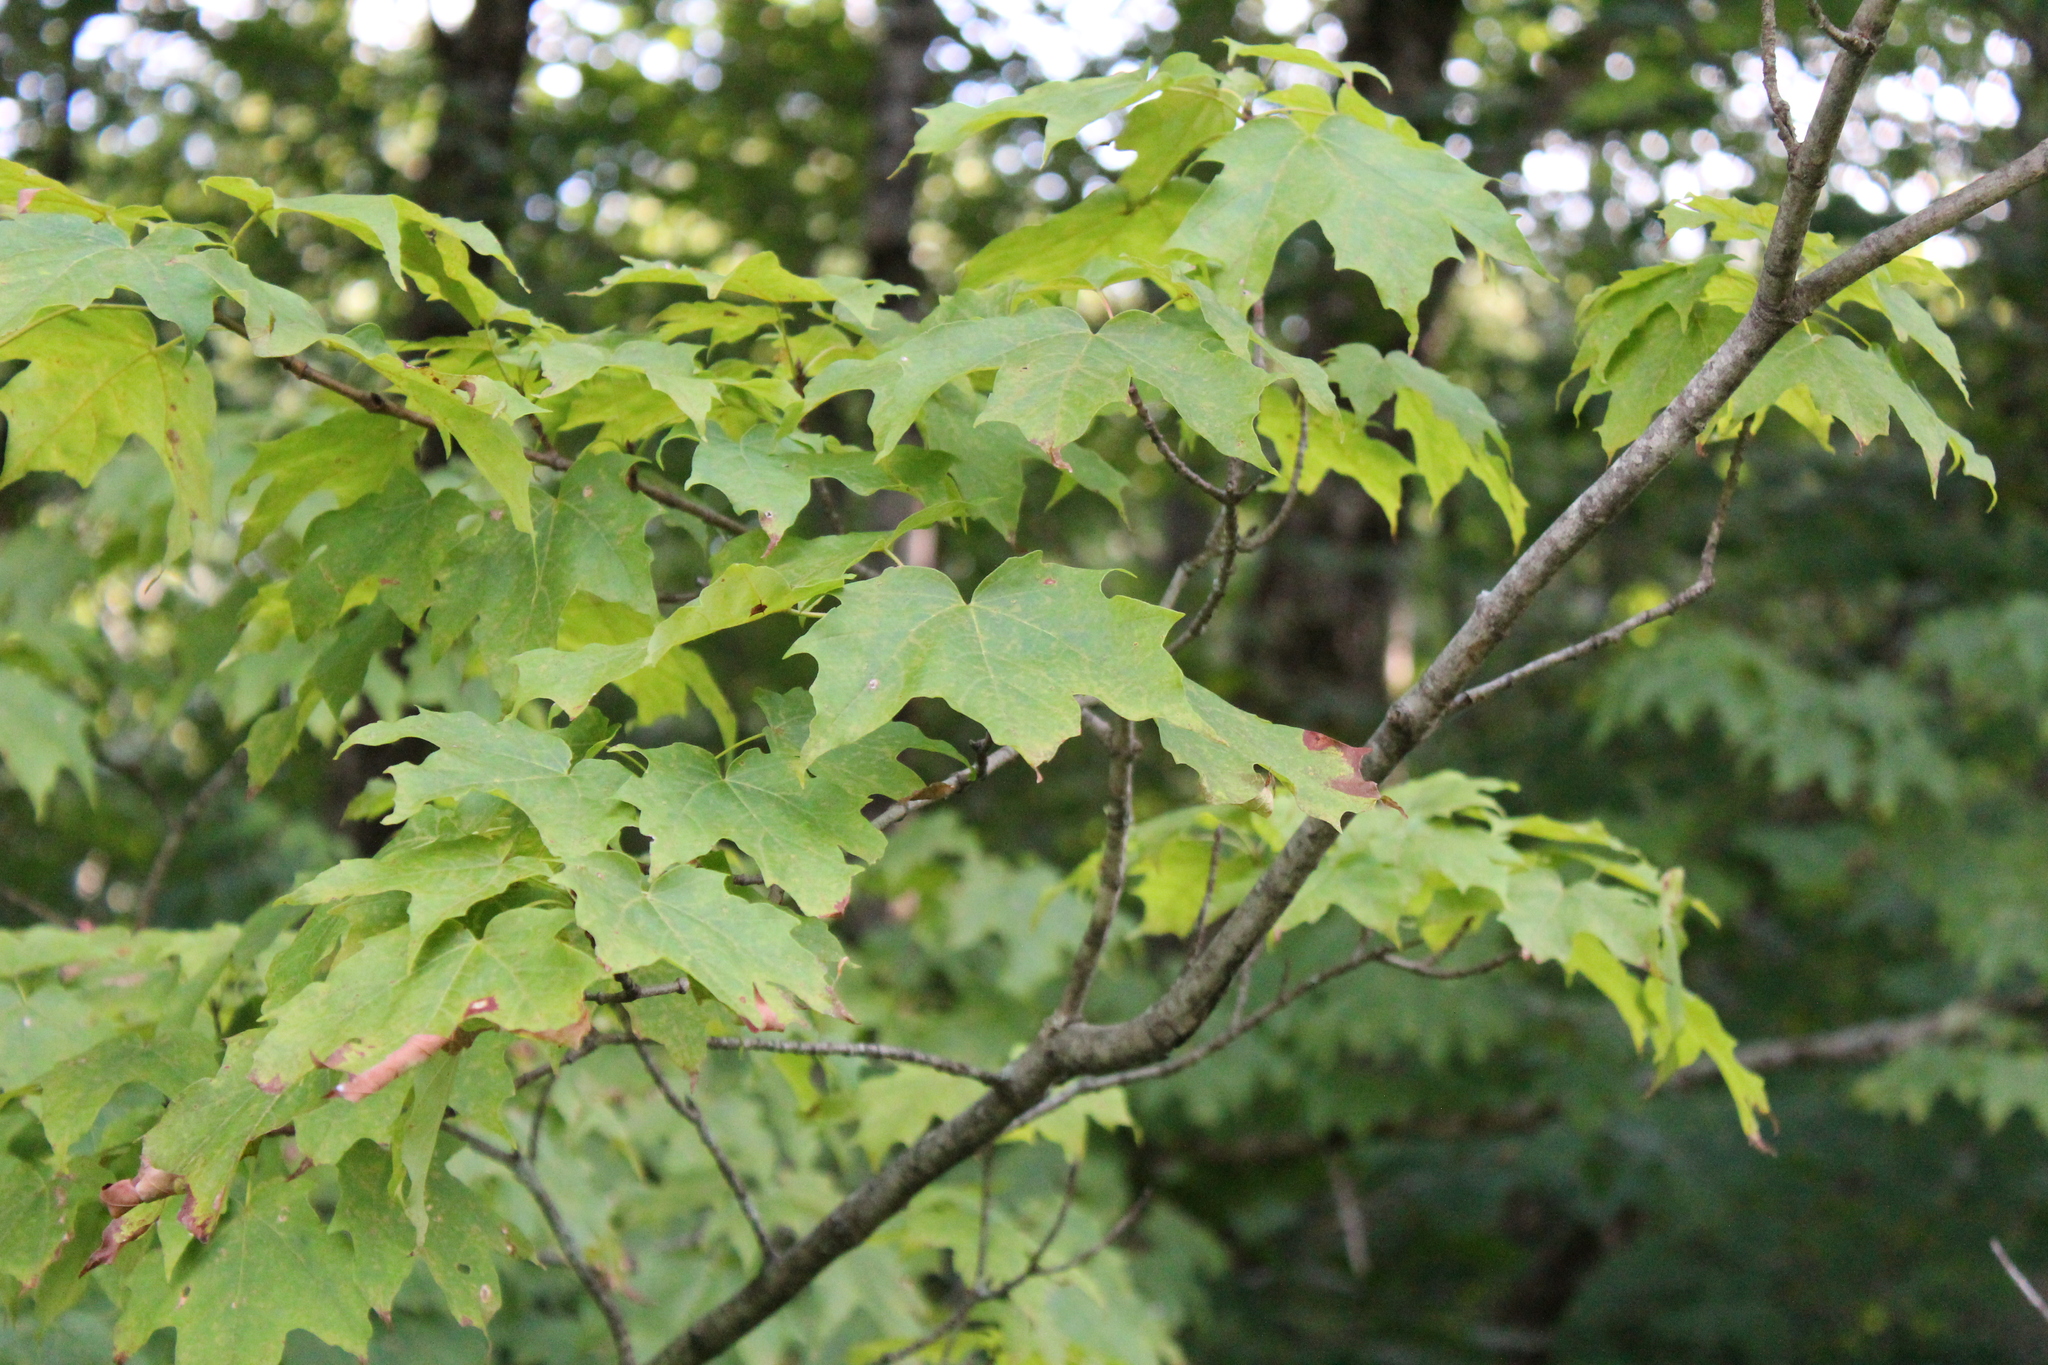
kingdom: Plantae
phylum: Tracheophyta
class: Magnoliopsida
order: Sapindales
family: Sapindaceae
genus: Acer
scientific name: Acer saccharum
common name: Sugar maple
